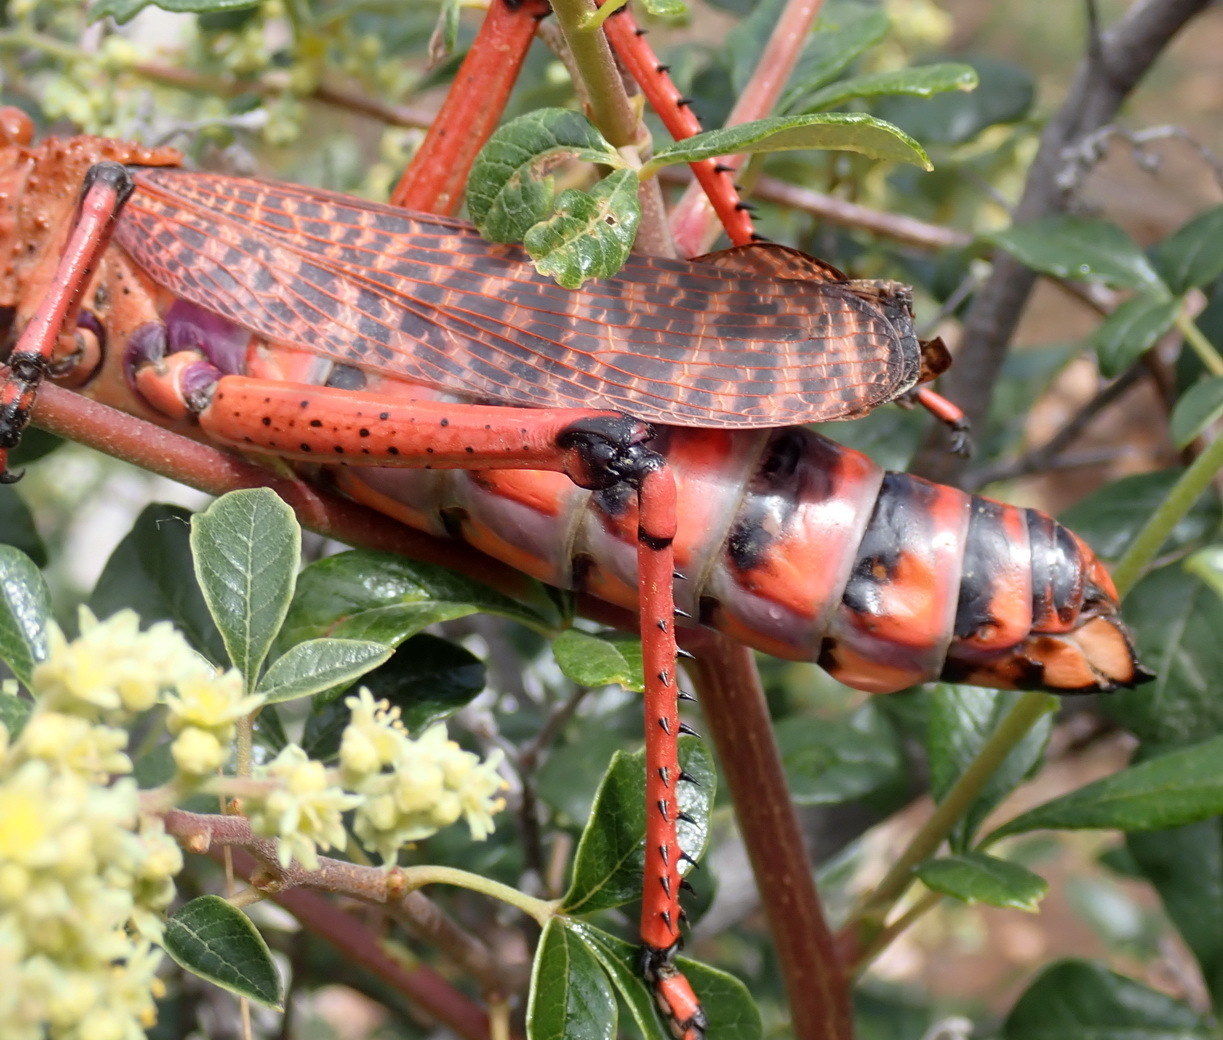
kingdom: Animalia
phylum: Arthropoda
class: Insecta
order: Orthoptera
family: Pyrgomorphidae
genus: Phymateus
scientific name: Phymateus leprosus
